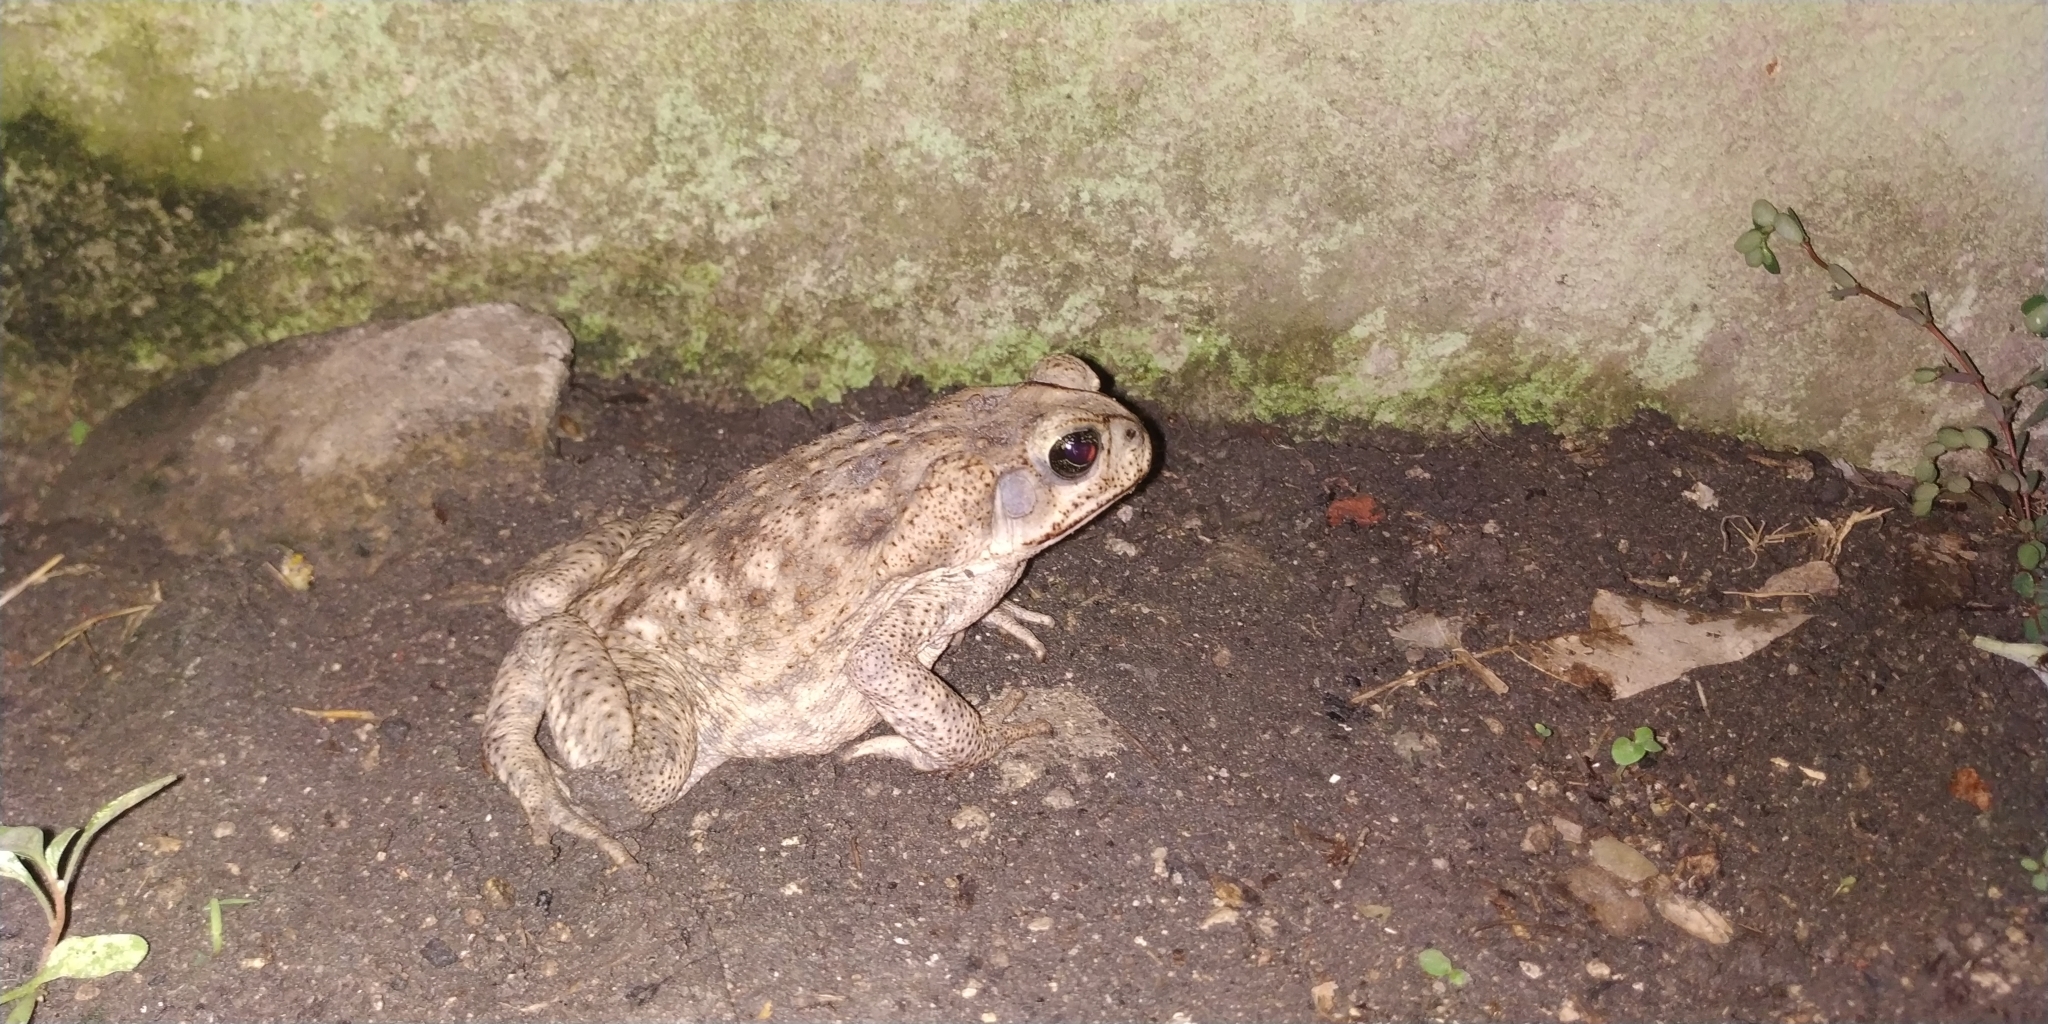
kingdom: Animalia
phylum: Chordata
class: Amphibia
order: Anura
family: Bufonidae
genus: Rhinella
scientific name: Rhinella horribilis
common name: Mesoamerican cane toad
